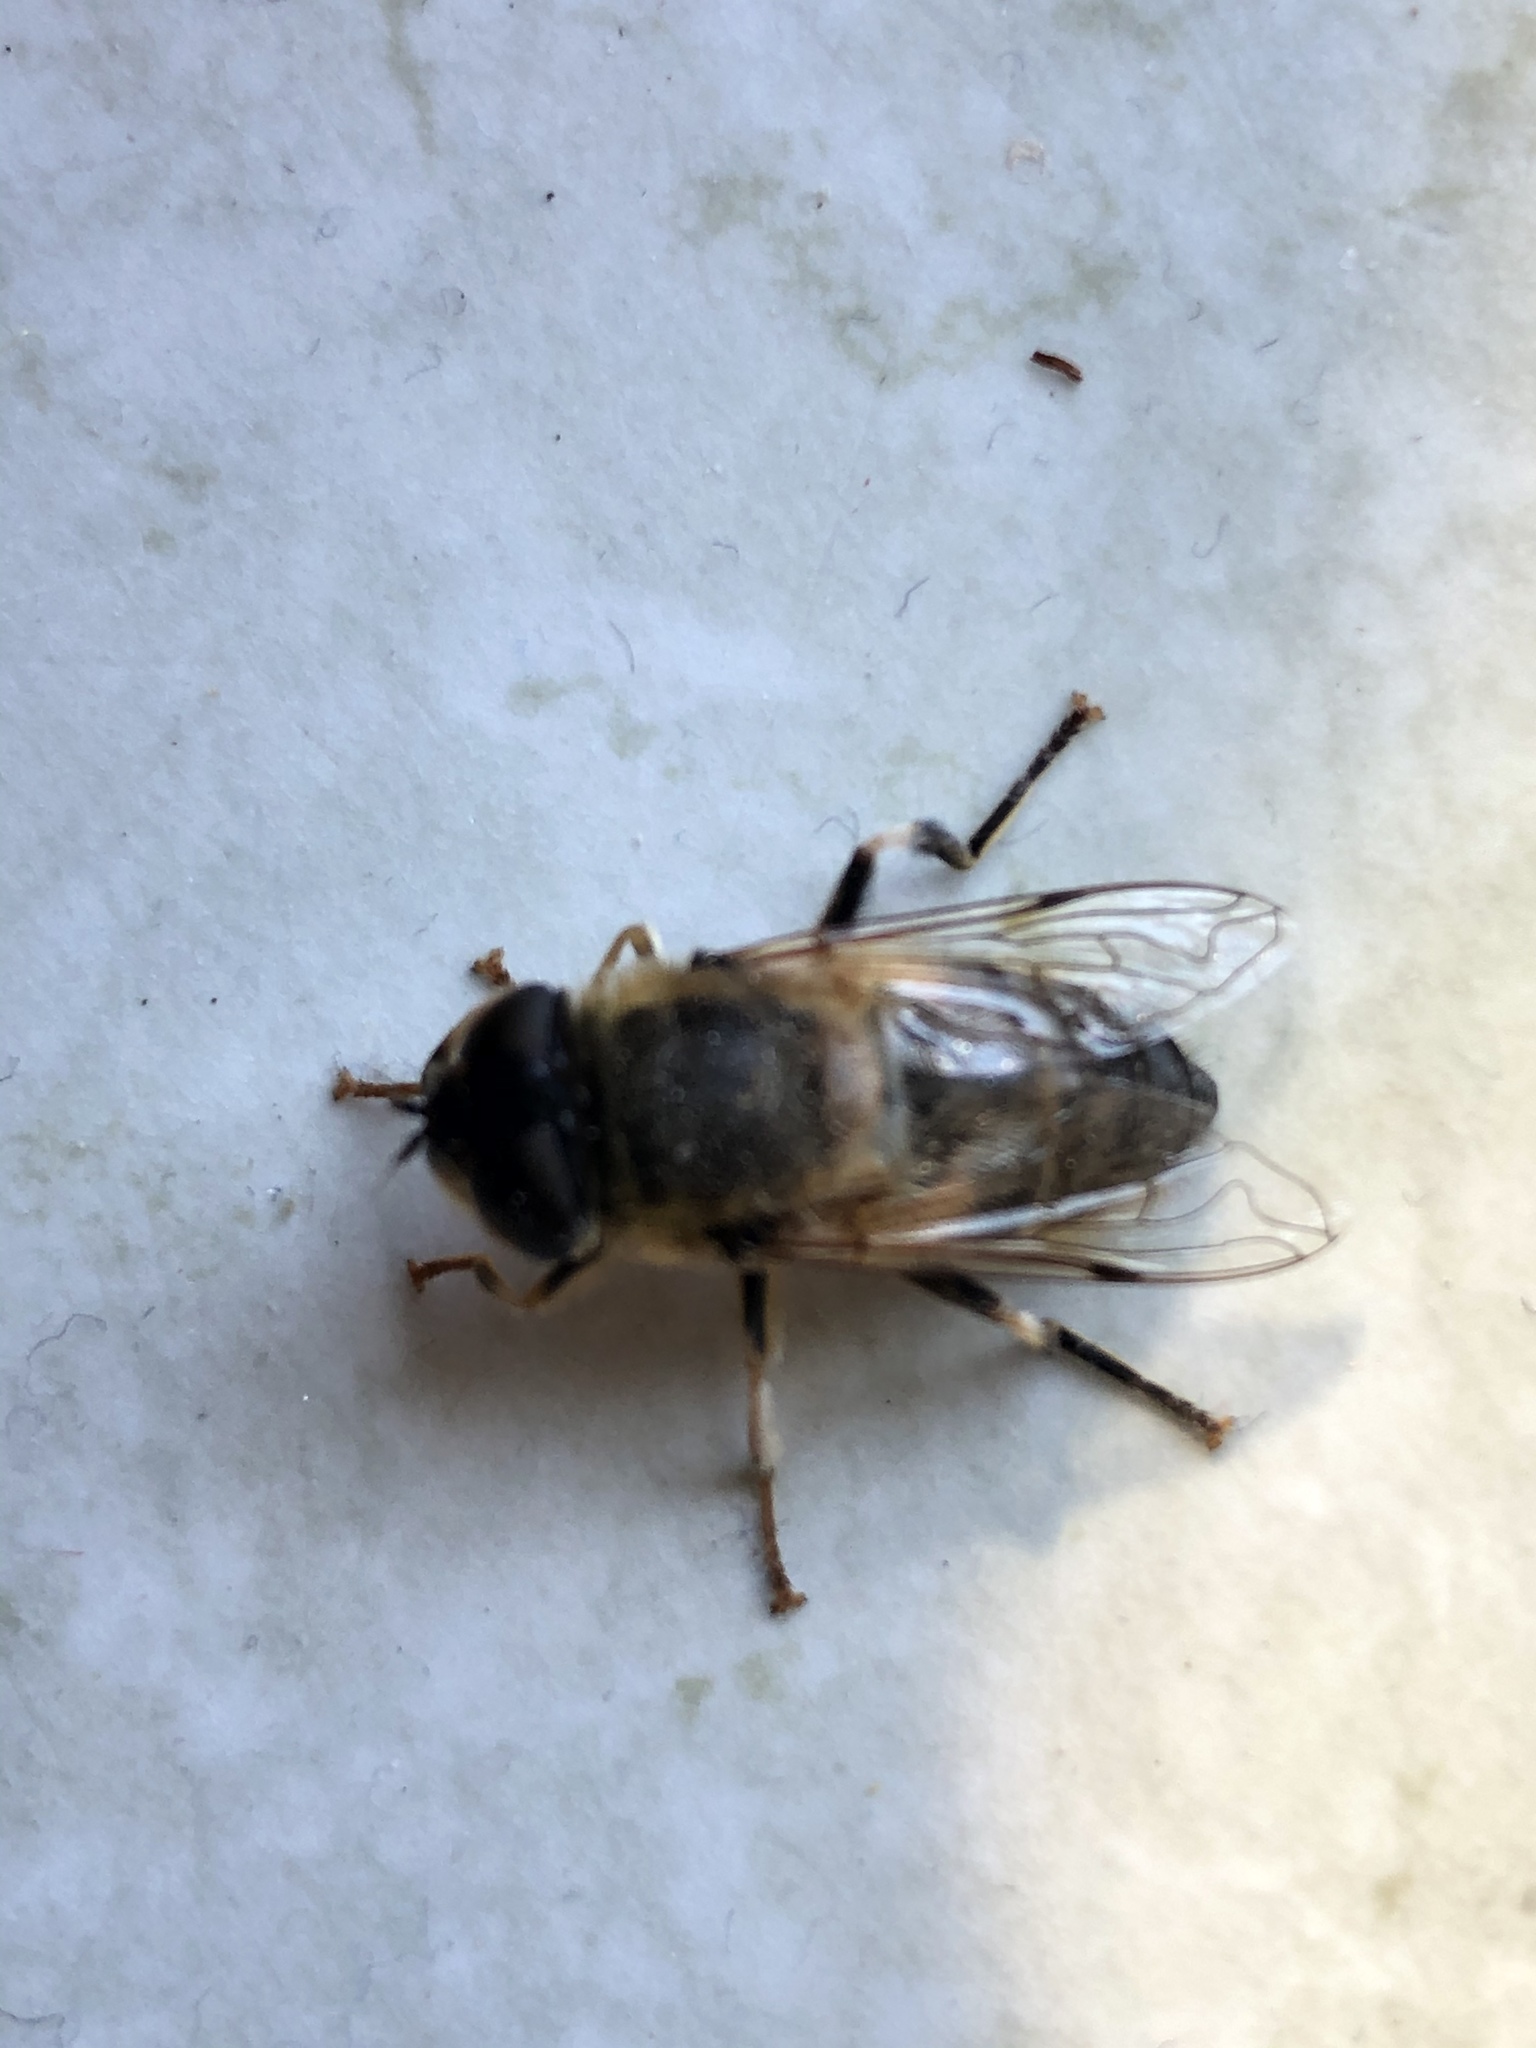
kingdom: Animalia
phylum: Arthropoda
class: Insecta
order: Diptera
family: Syrphidae
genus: Eristalis
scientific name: Eristalis pertinax
